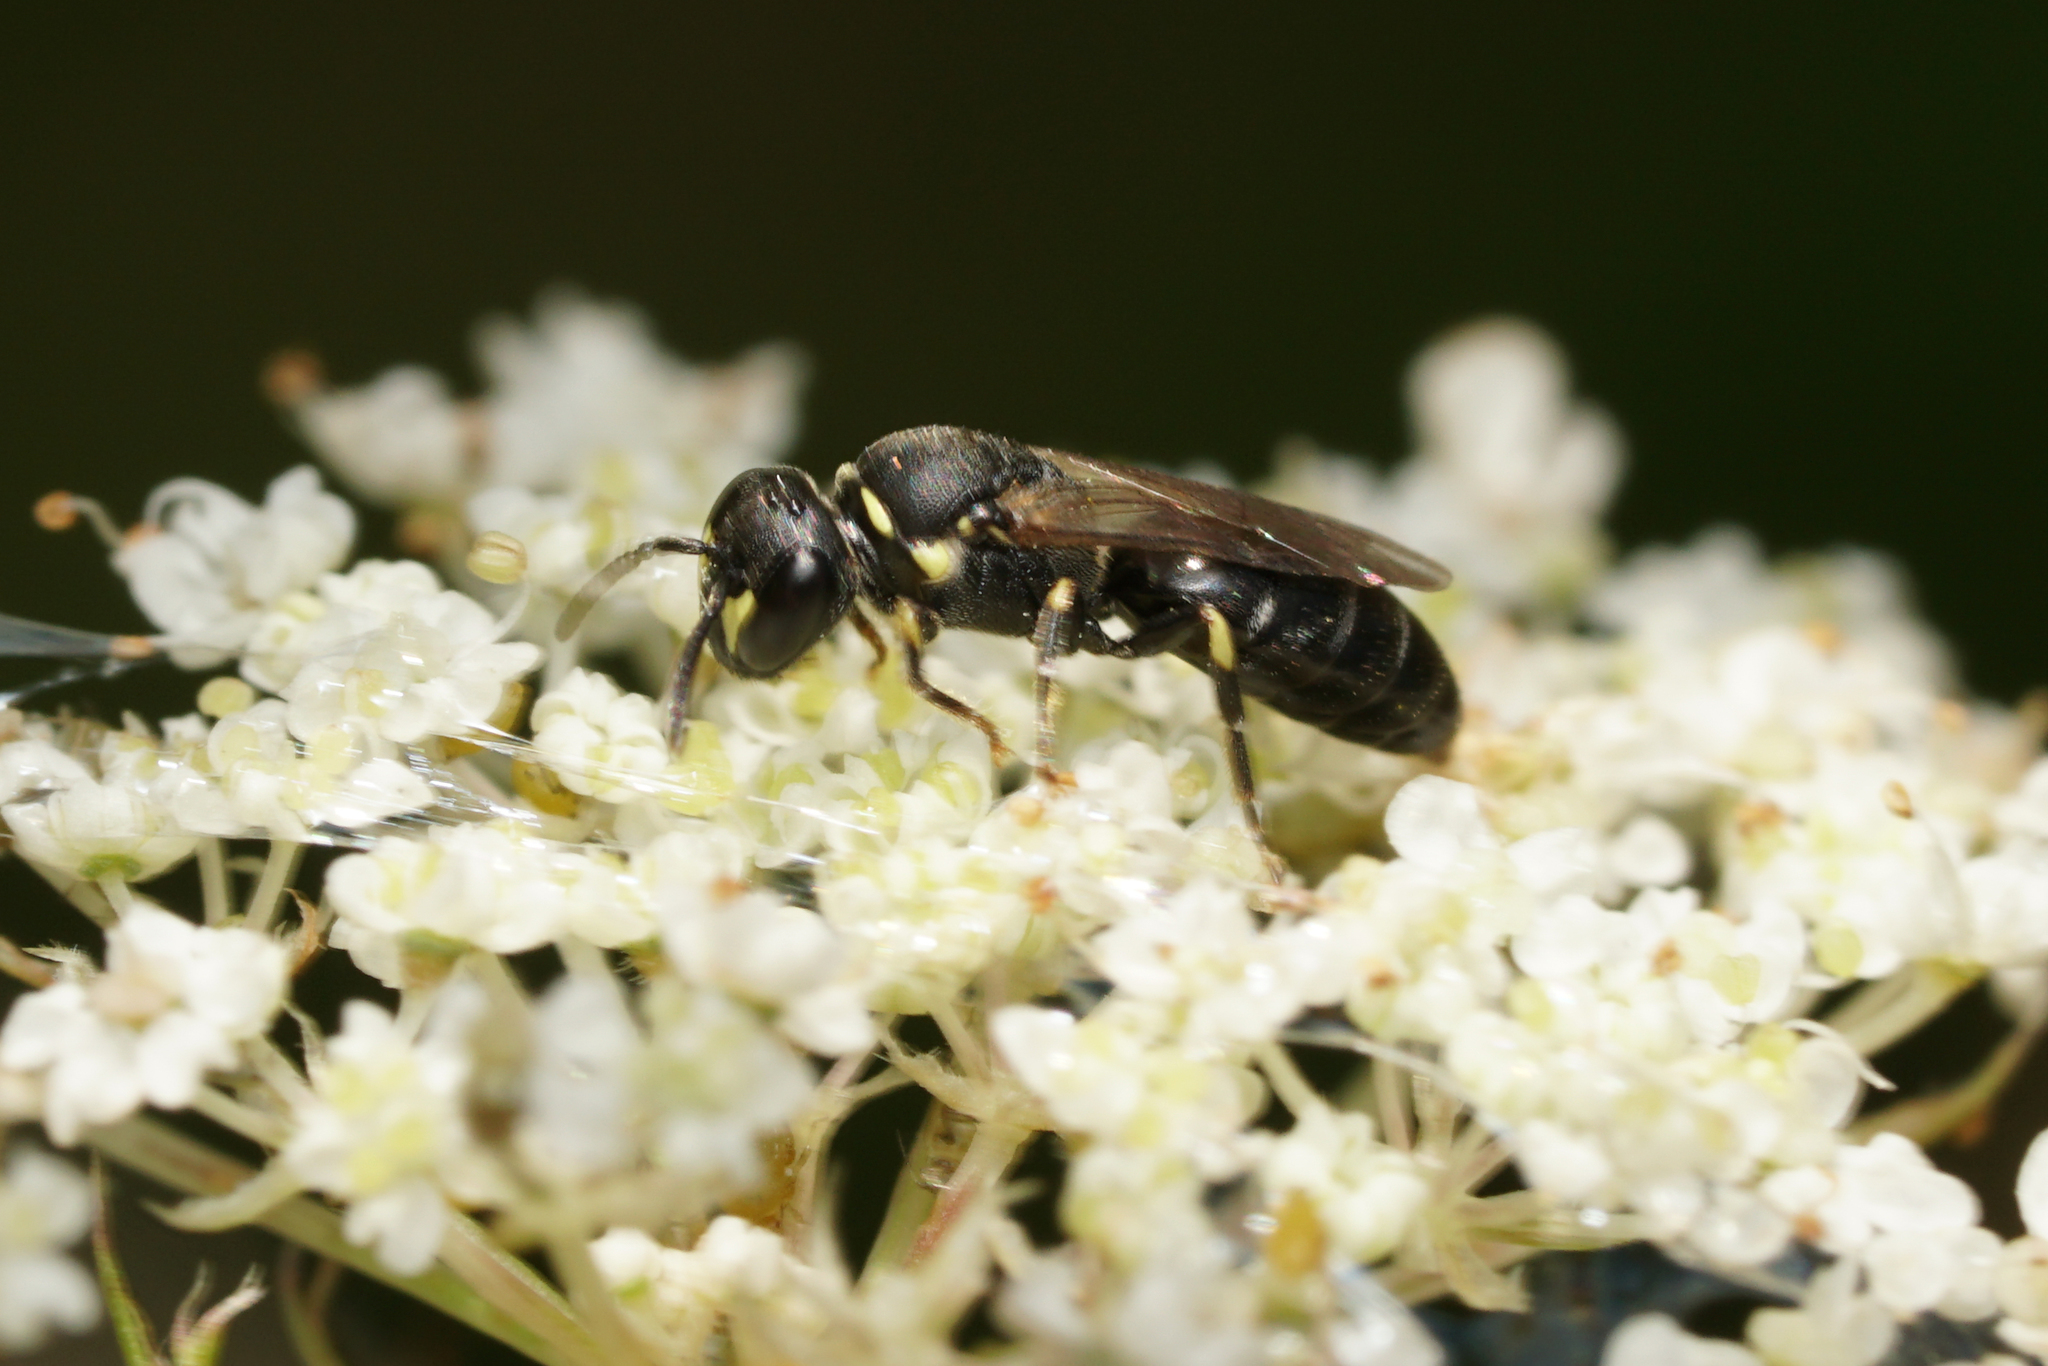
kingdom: Animalia
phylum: Arthropoda
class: Insecta
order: Hymenoptera
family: Colletidae
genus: Hylaeus
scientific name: Hylaeus affinis
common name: Eastern masked bee
